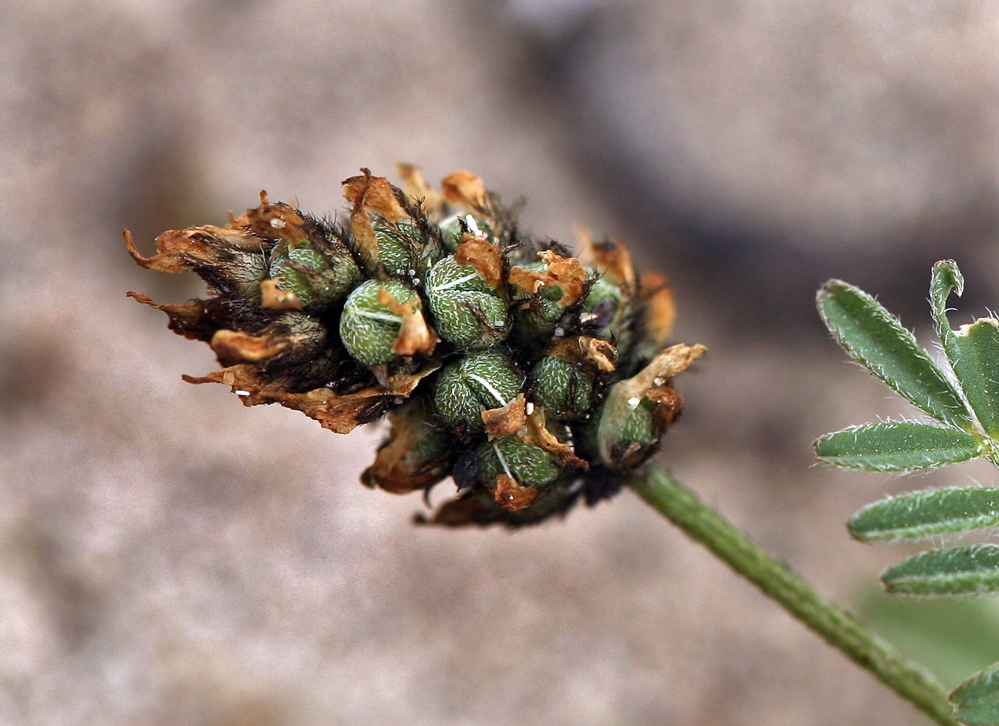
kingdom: Plantae
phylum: Tracheophyta
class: Magnoliopsida
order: Fabales
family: Fabaceae
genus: Astragalus
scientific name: Astragalus didymocarpus
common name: Dwarf white milkvetch
